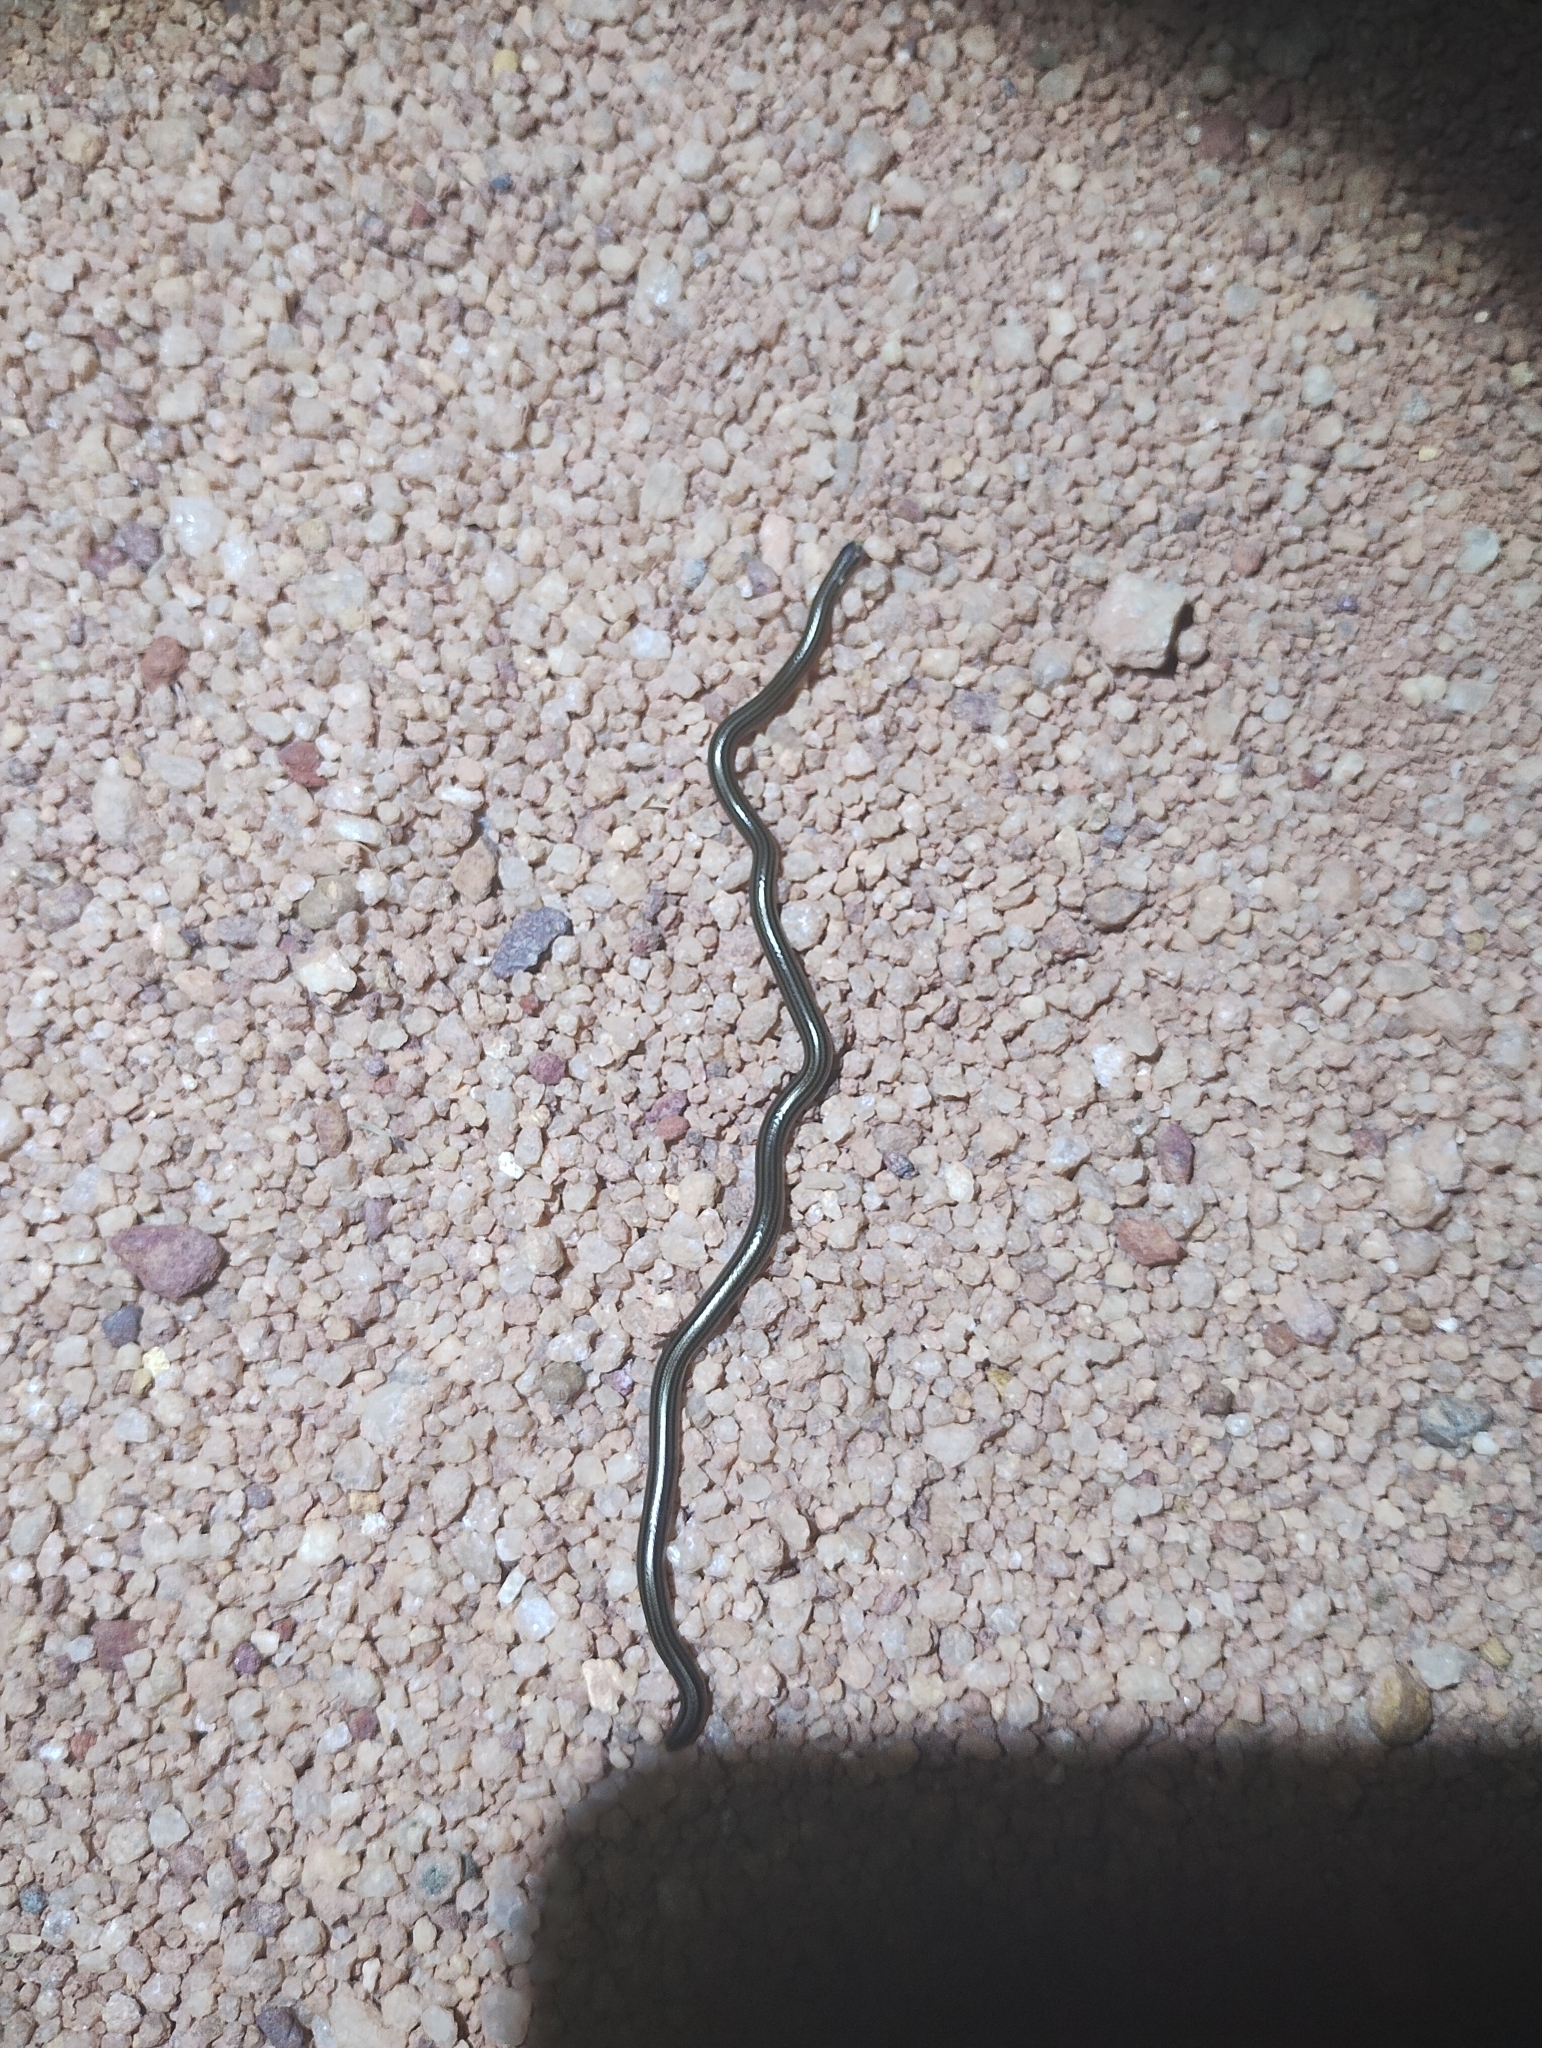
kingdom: Animalia
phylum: Chordata
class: Squamata
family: Leptotyphlopidae
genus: Epictia
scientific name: Epictia tenella
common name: Guyana blind snake
